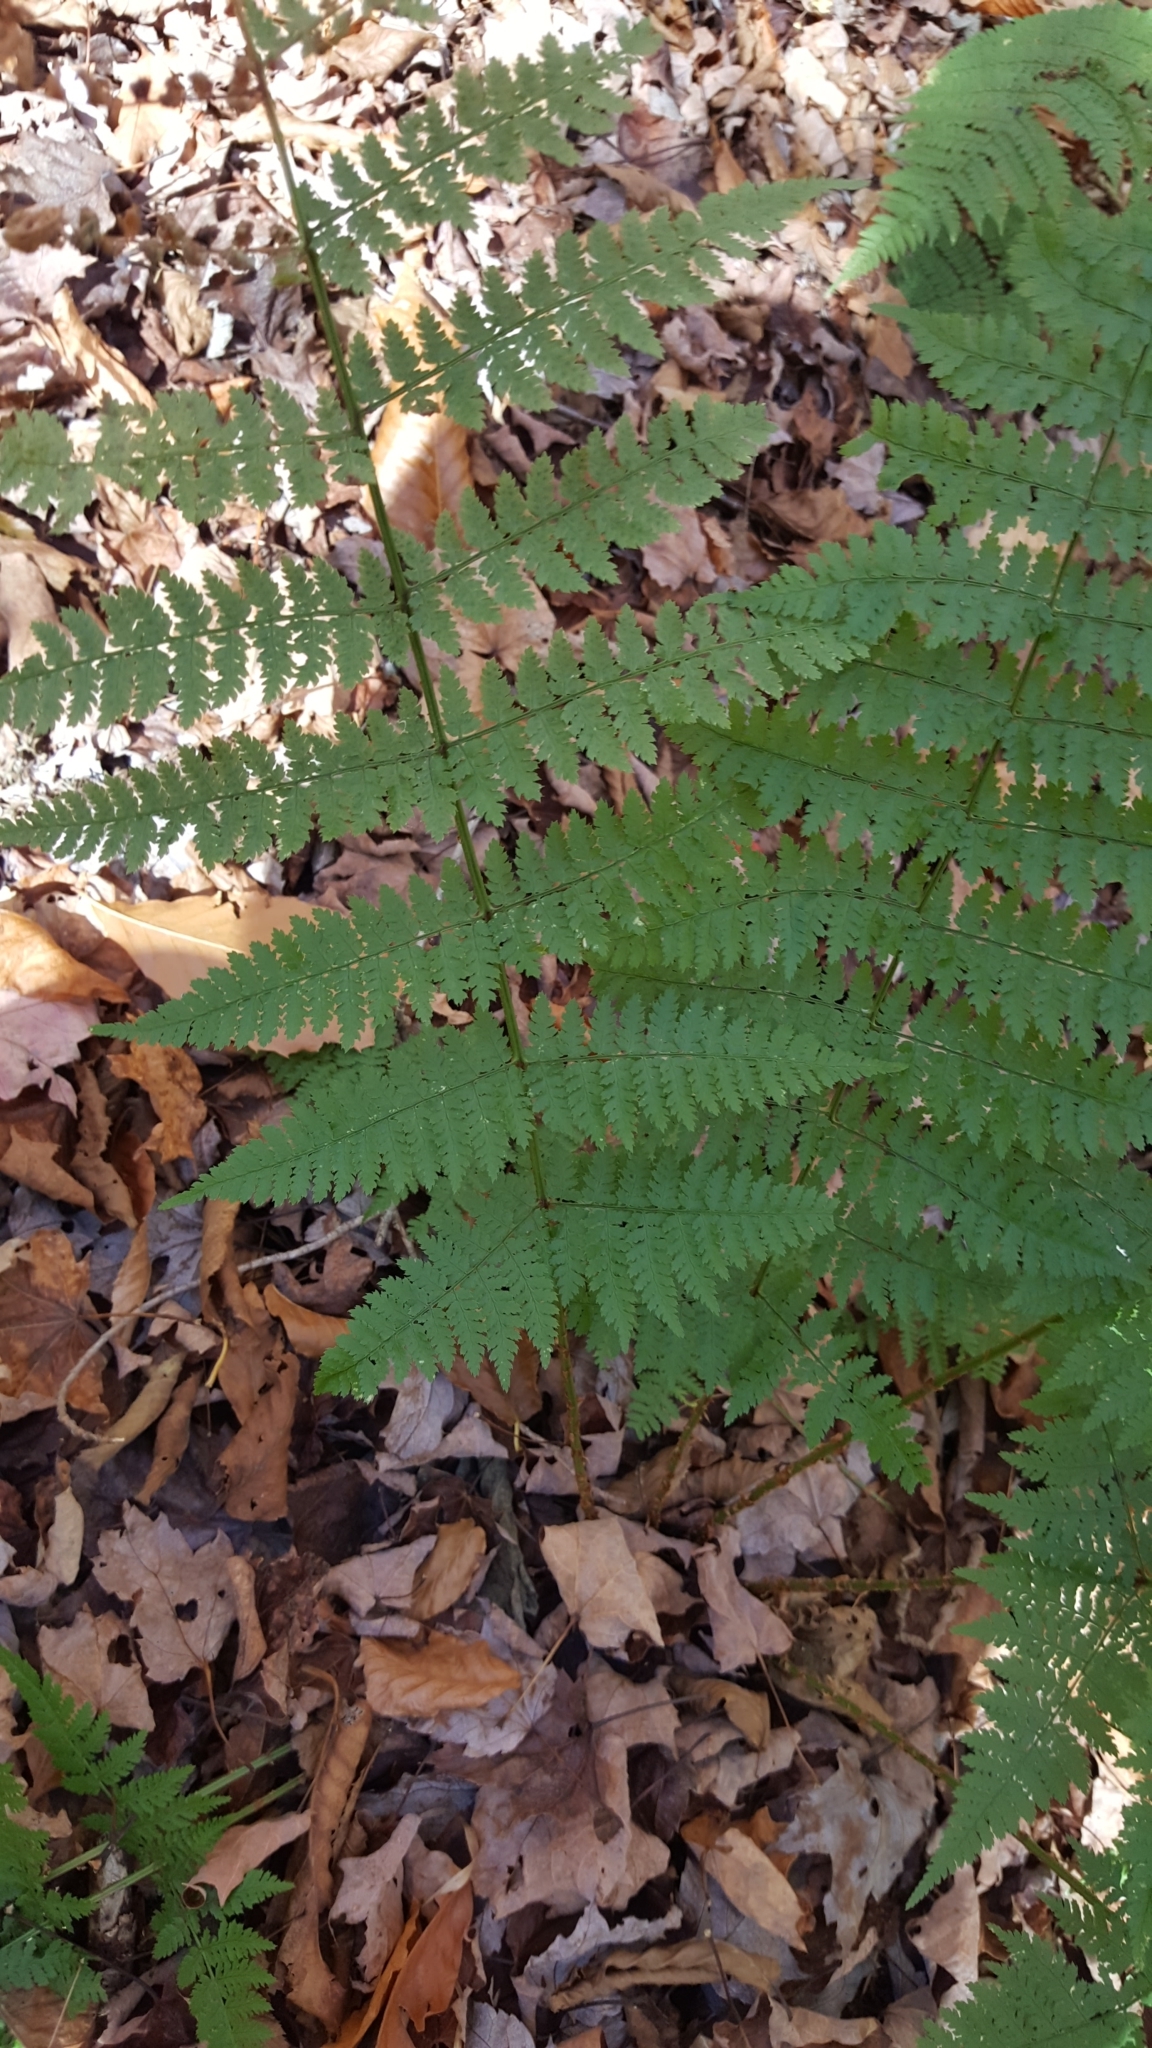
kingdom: Plantae
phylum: Tracheophyta
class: Polypodiopsida
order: Polypodiales
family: Dryopteridaceae
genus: Dryopteris
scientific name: Dryopteris intermedia
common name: Evergreen wood fern
